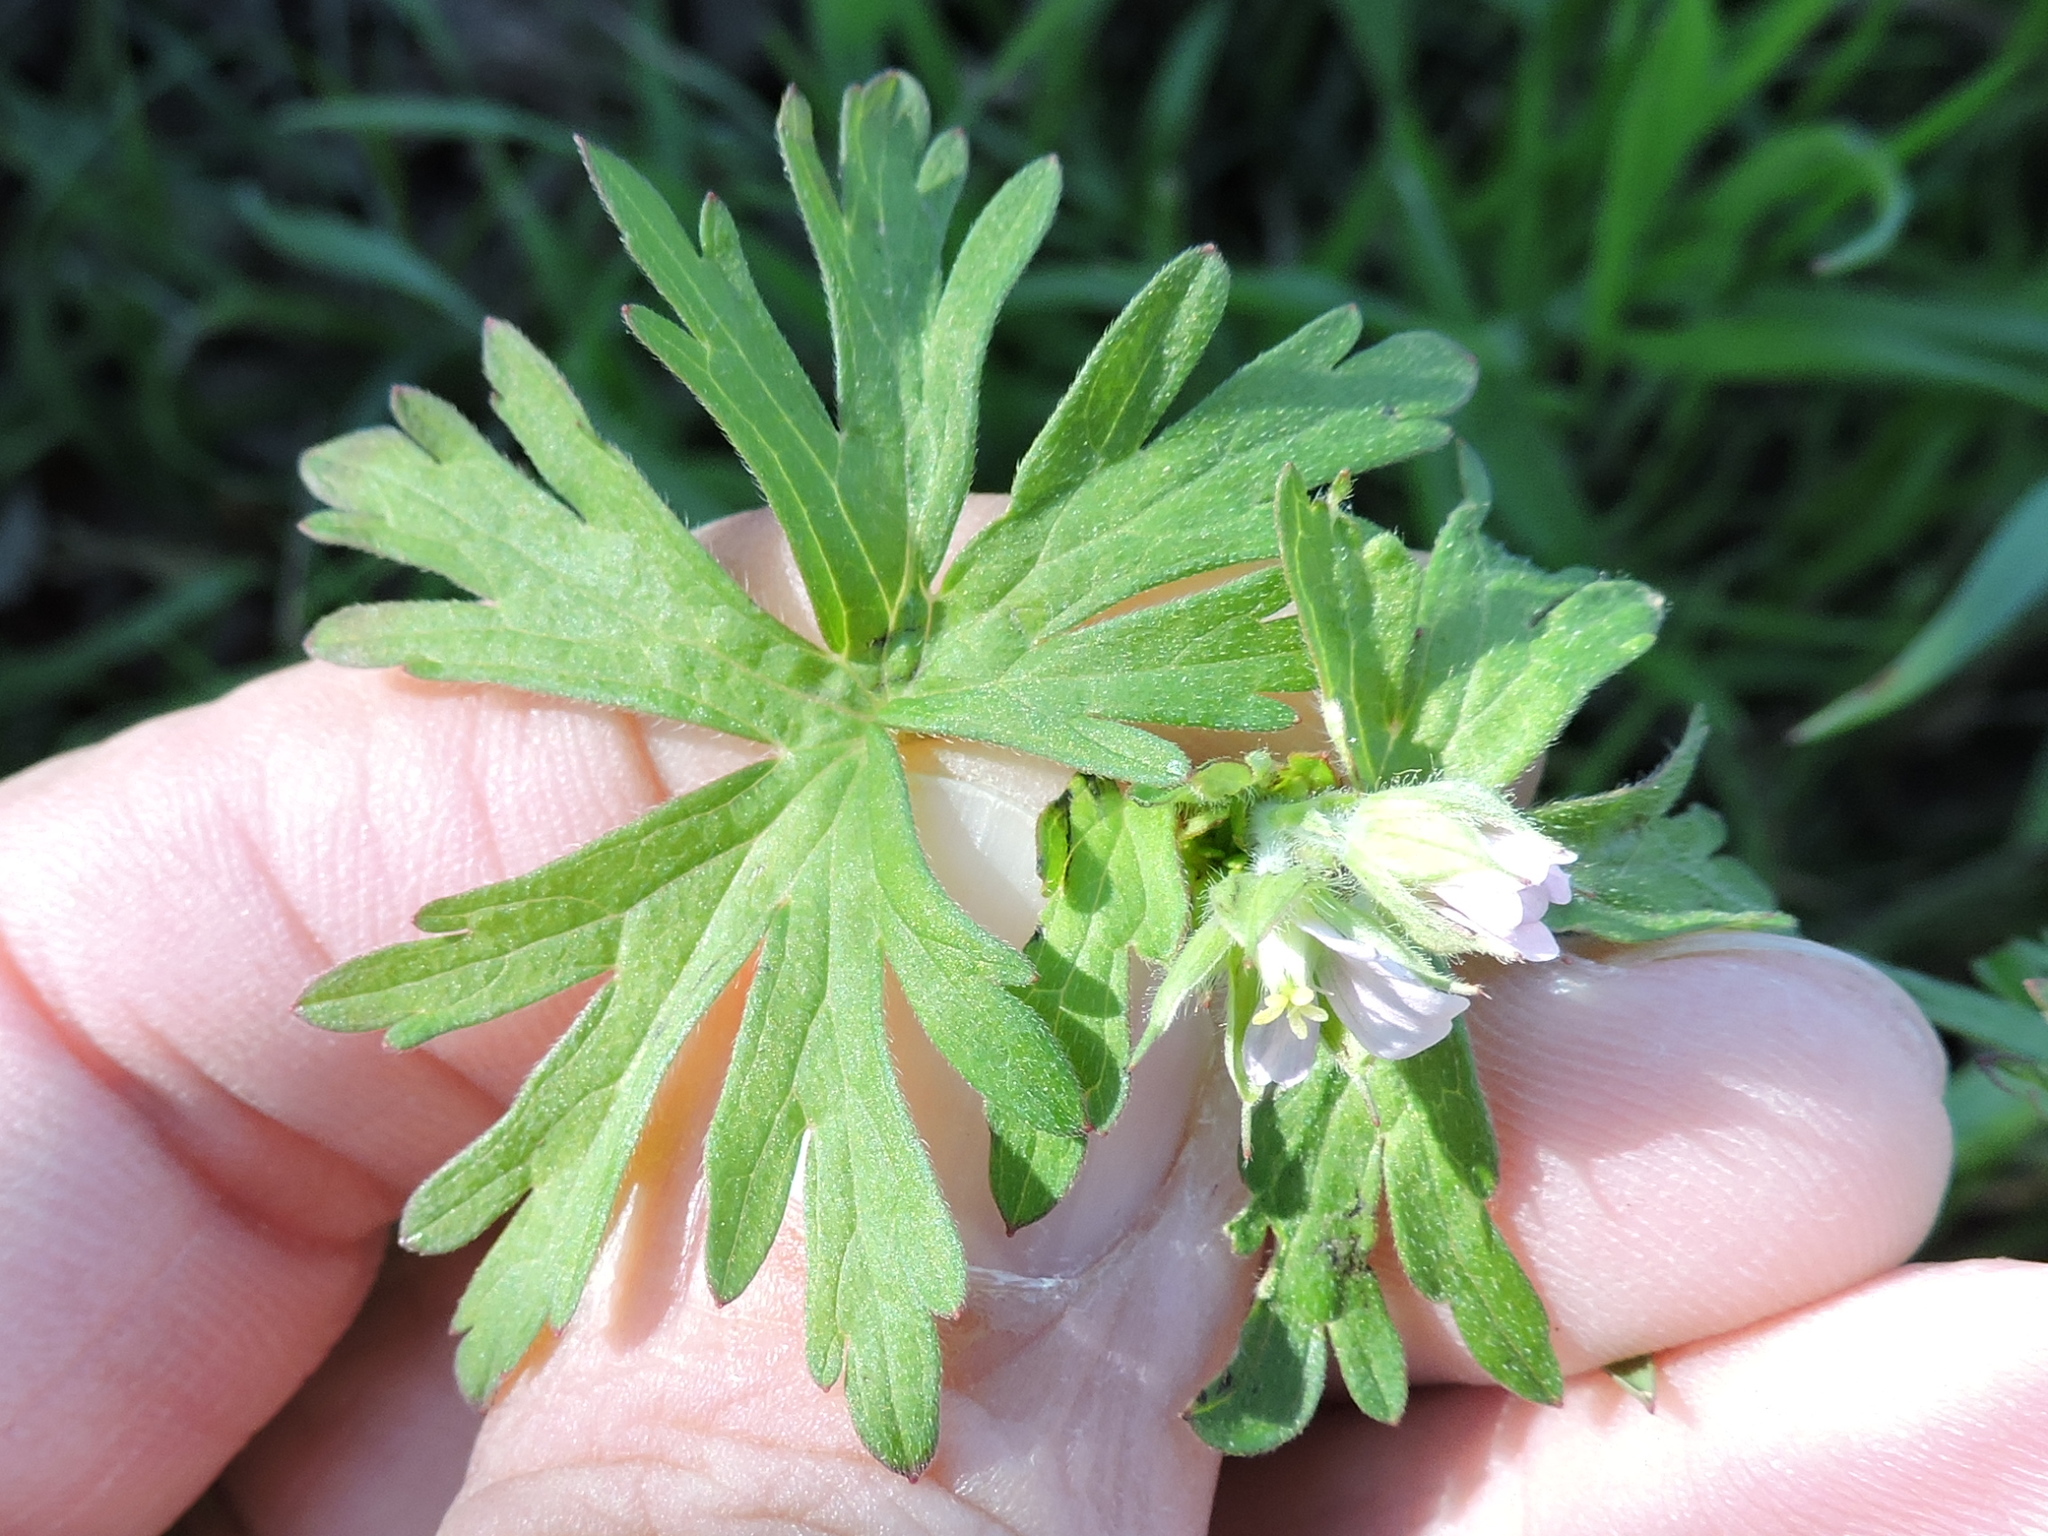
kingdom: Plantae
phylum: Tracheophyta
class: Magnoliopsida
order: Geraniales
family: Geraniaceae
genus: Geranium
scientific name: Geranium carolinianum
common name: Carolina crane's-bill
